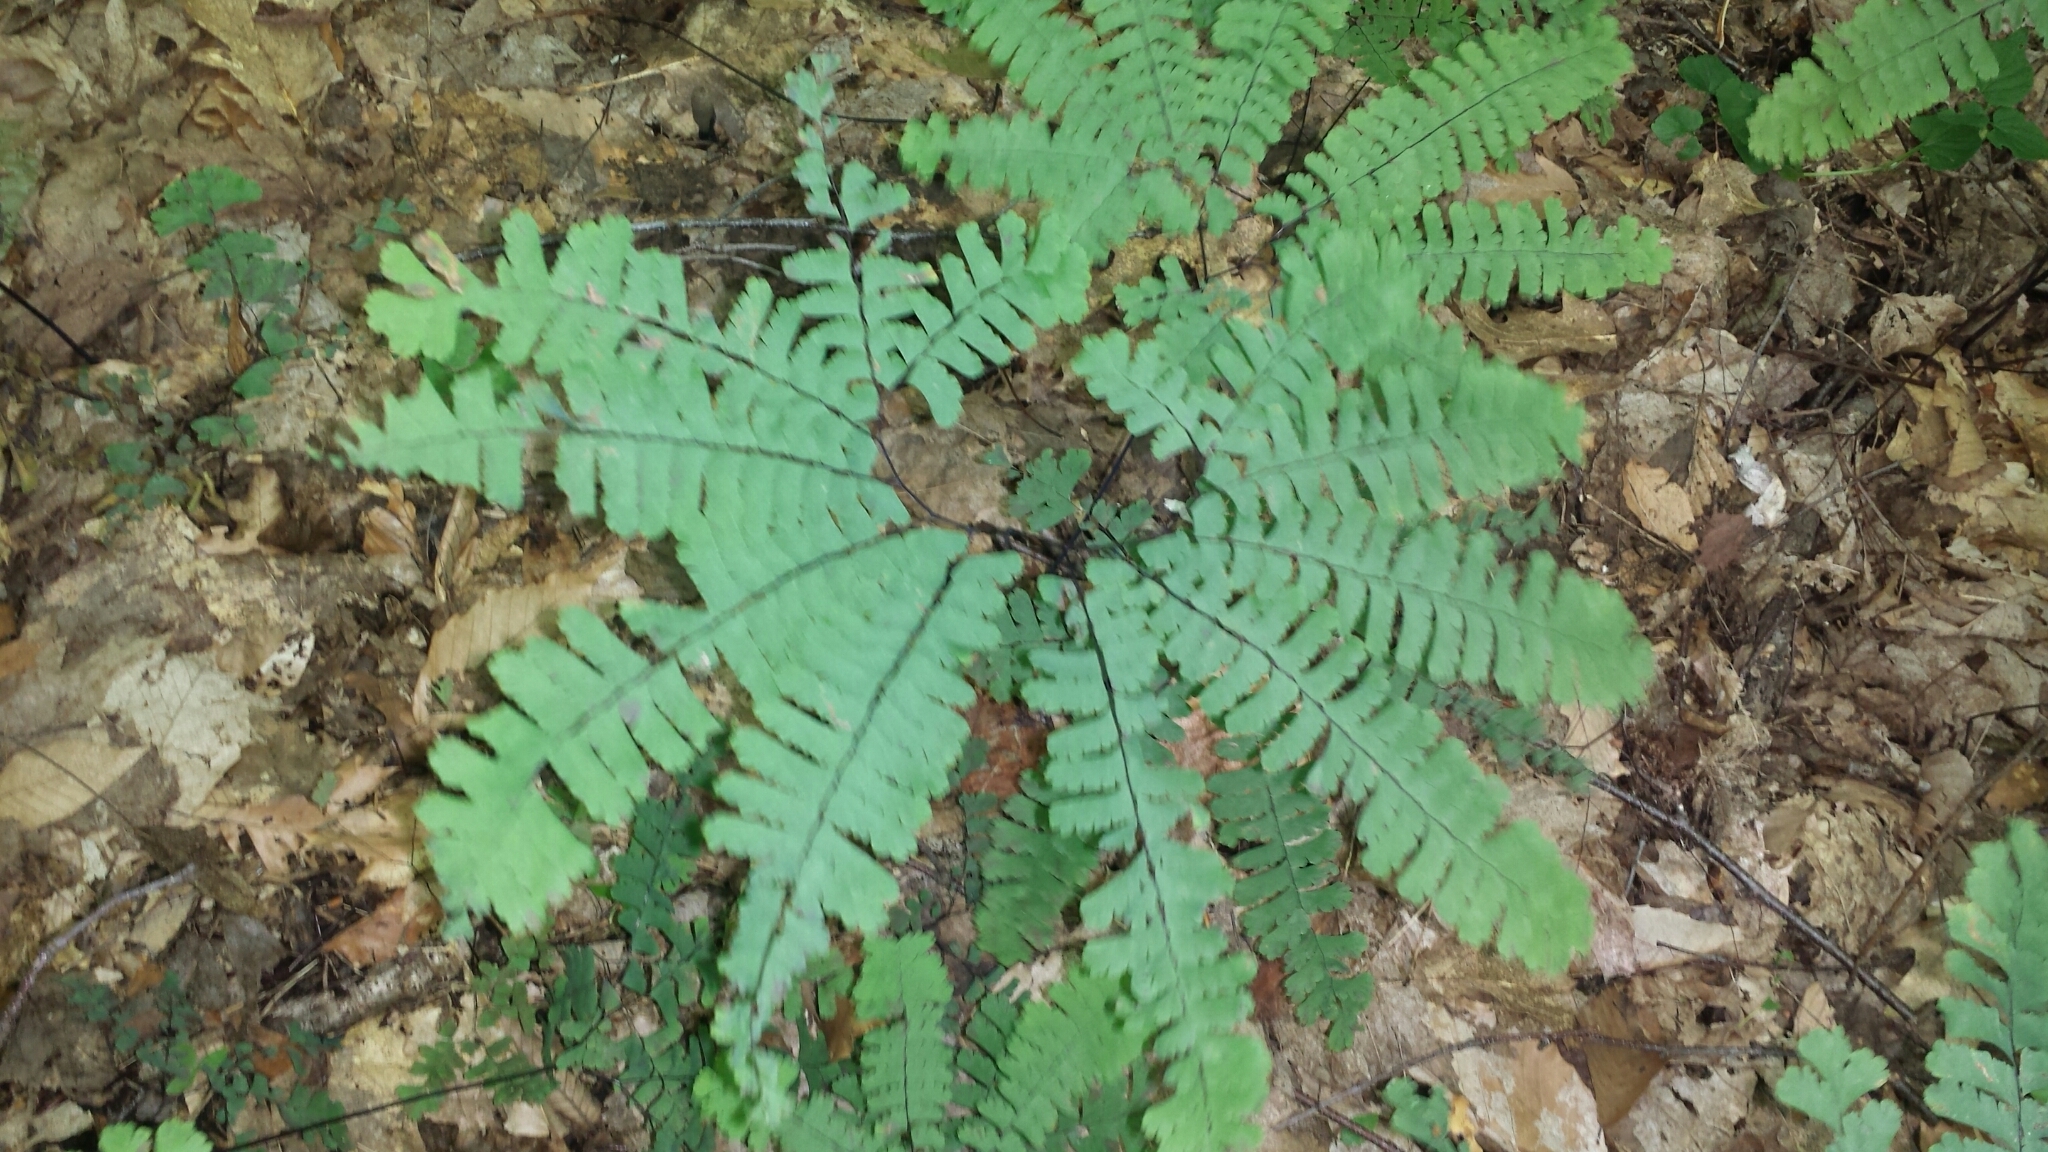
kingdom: Plantae
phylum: Tracheophyta
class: Polypodiopsida
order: Polypodiales
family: Pteridaceae
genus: Adiantum
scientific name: Adiantum pedatum
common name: Five-finger fern
